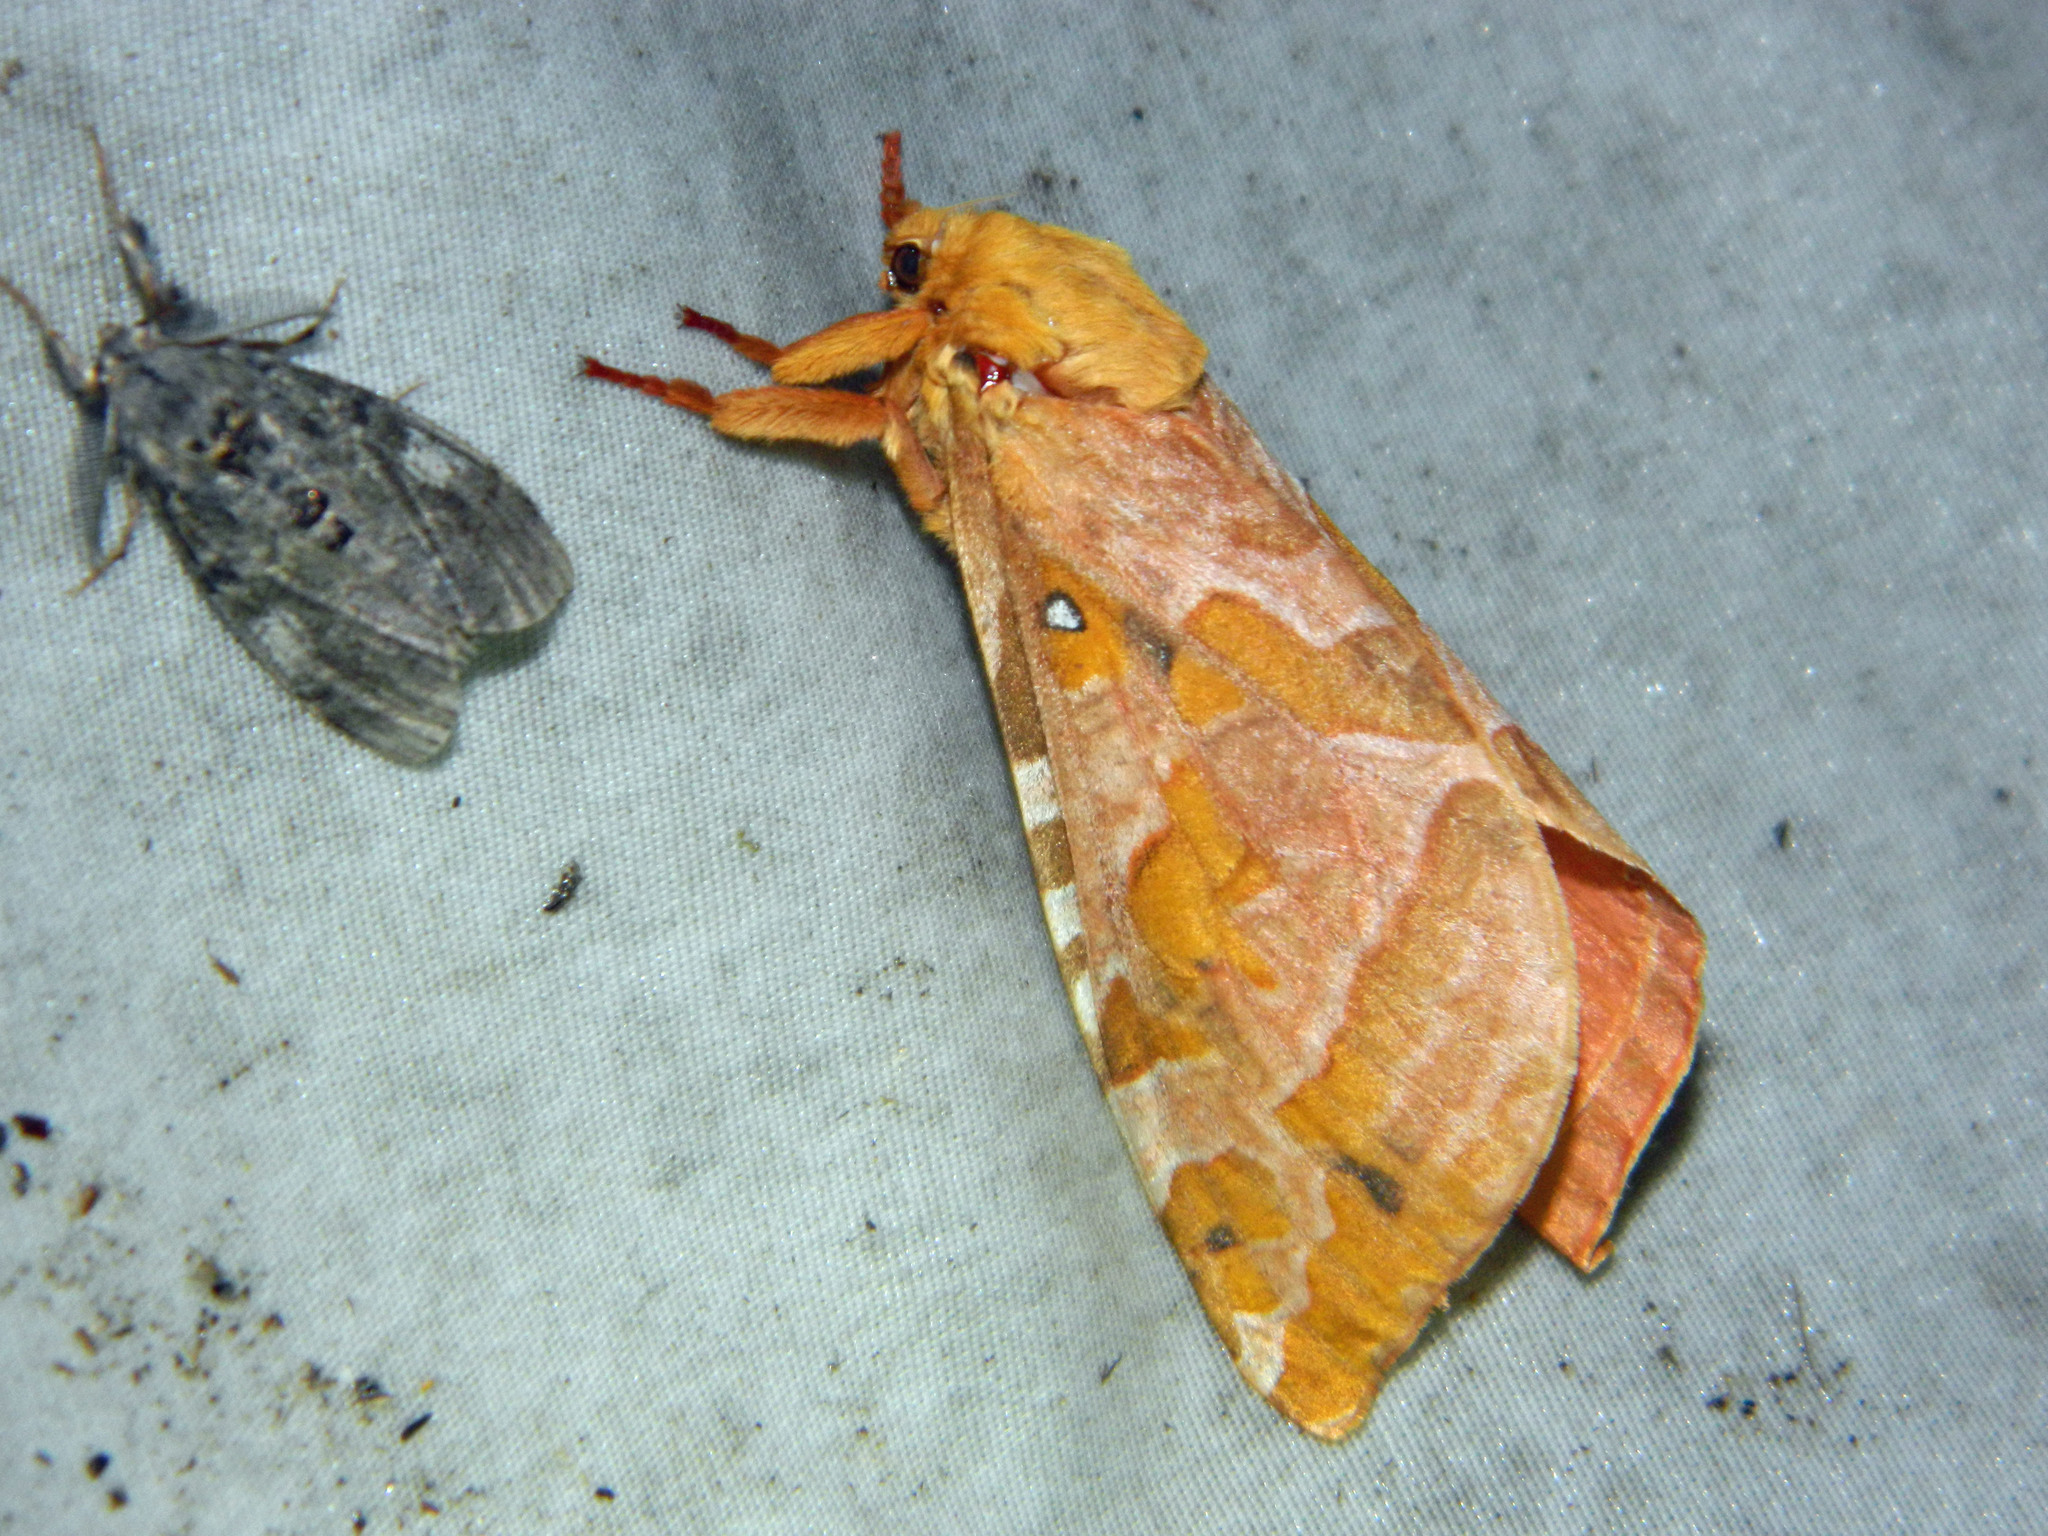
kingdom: Animalia
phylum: Arthropoda
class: Insecta
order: Lepidoptera
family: Hepialidae
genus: Sthenopis
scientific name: Sthenopis purpurascens
